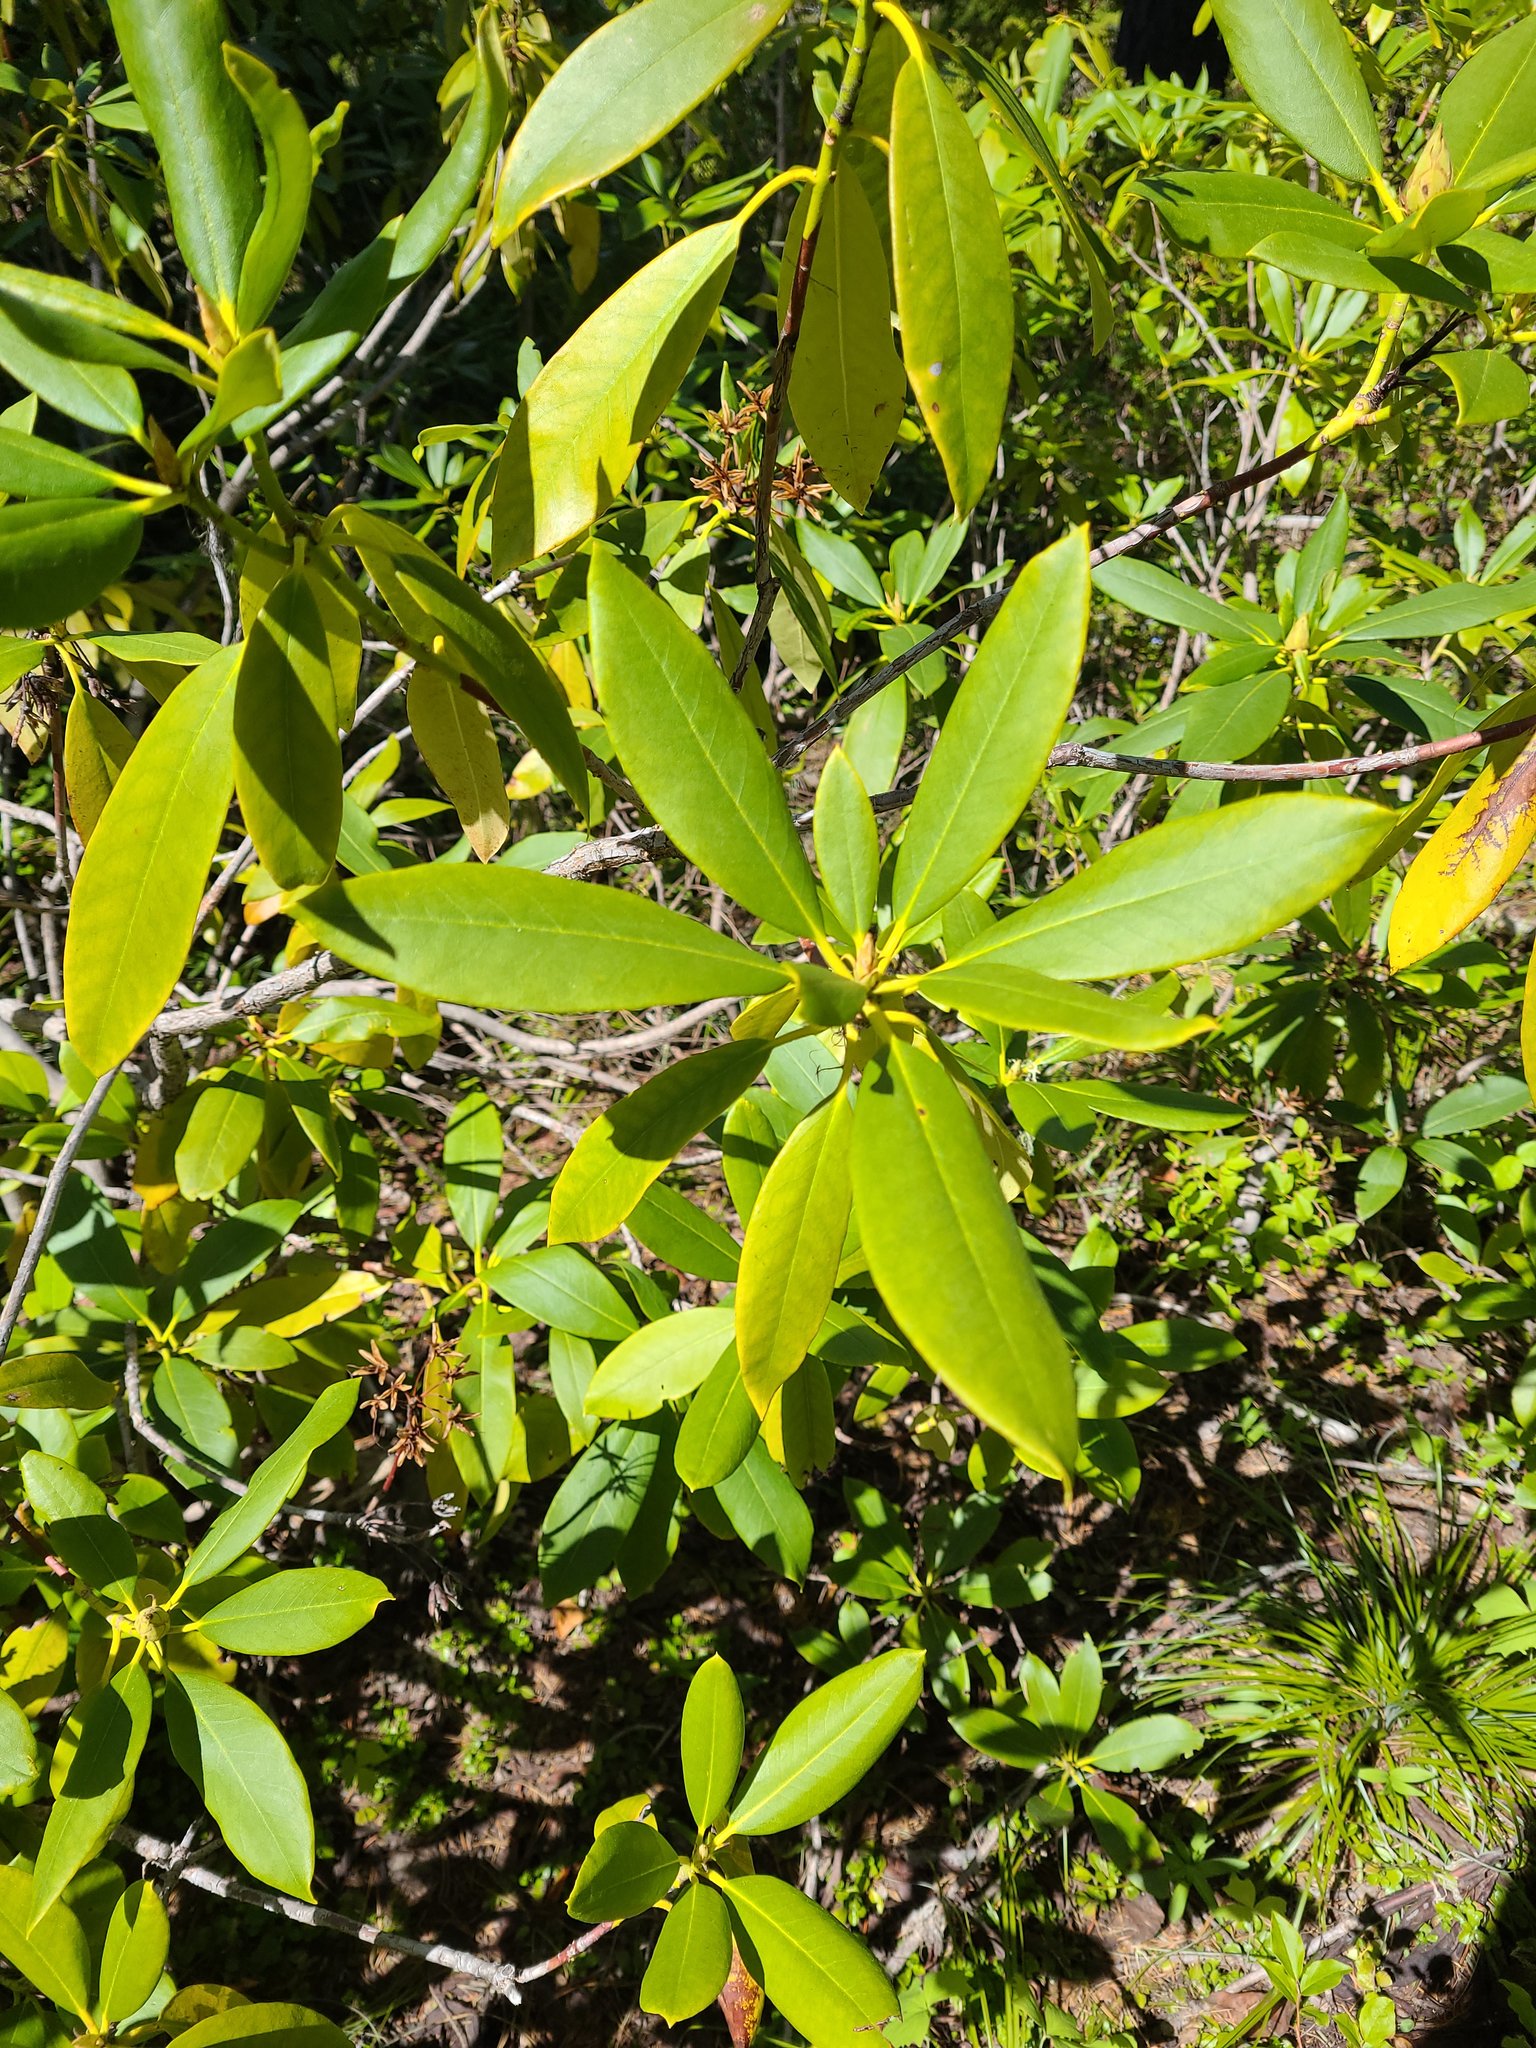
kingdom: Plantae
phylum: Tracheophyta
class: Magnoliopsida
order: Ericales
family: Ericaceae
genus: Rhododendron
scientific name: Rhododendron macrophyllum
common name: California rose bay
